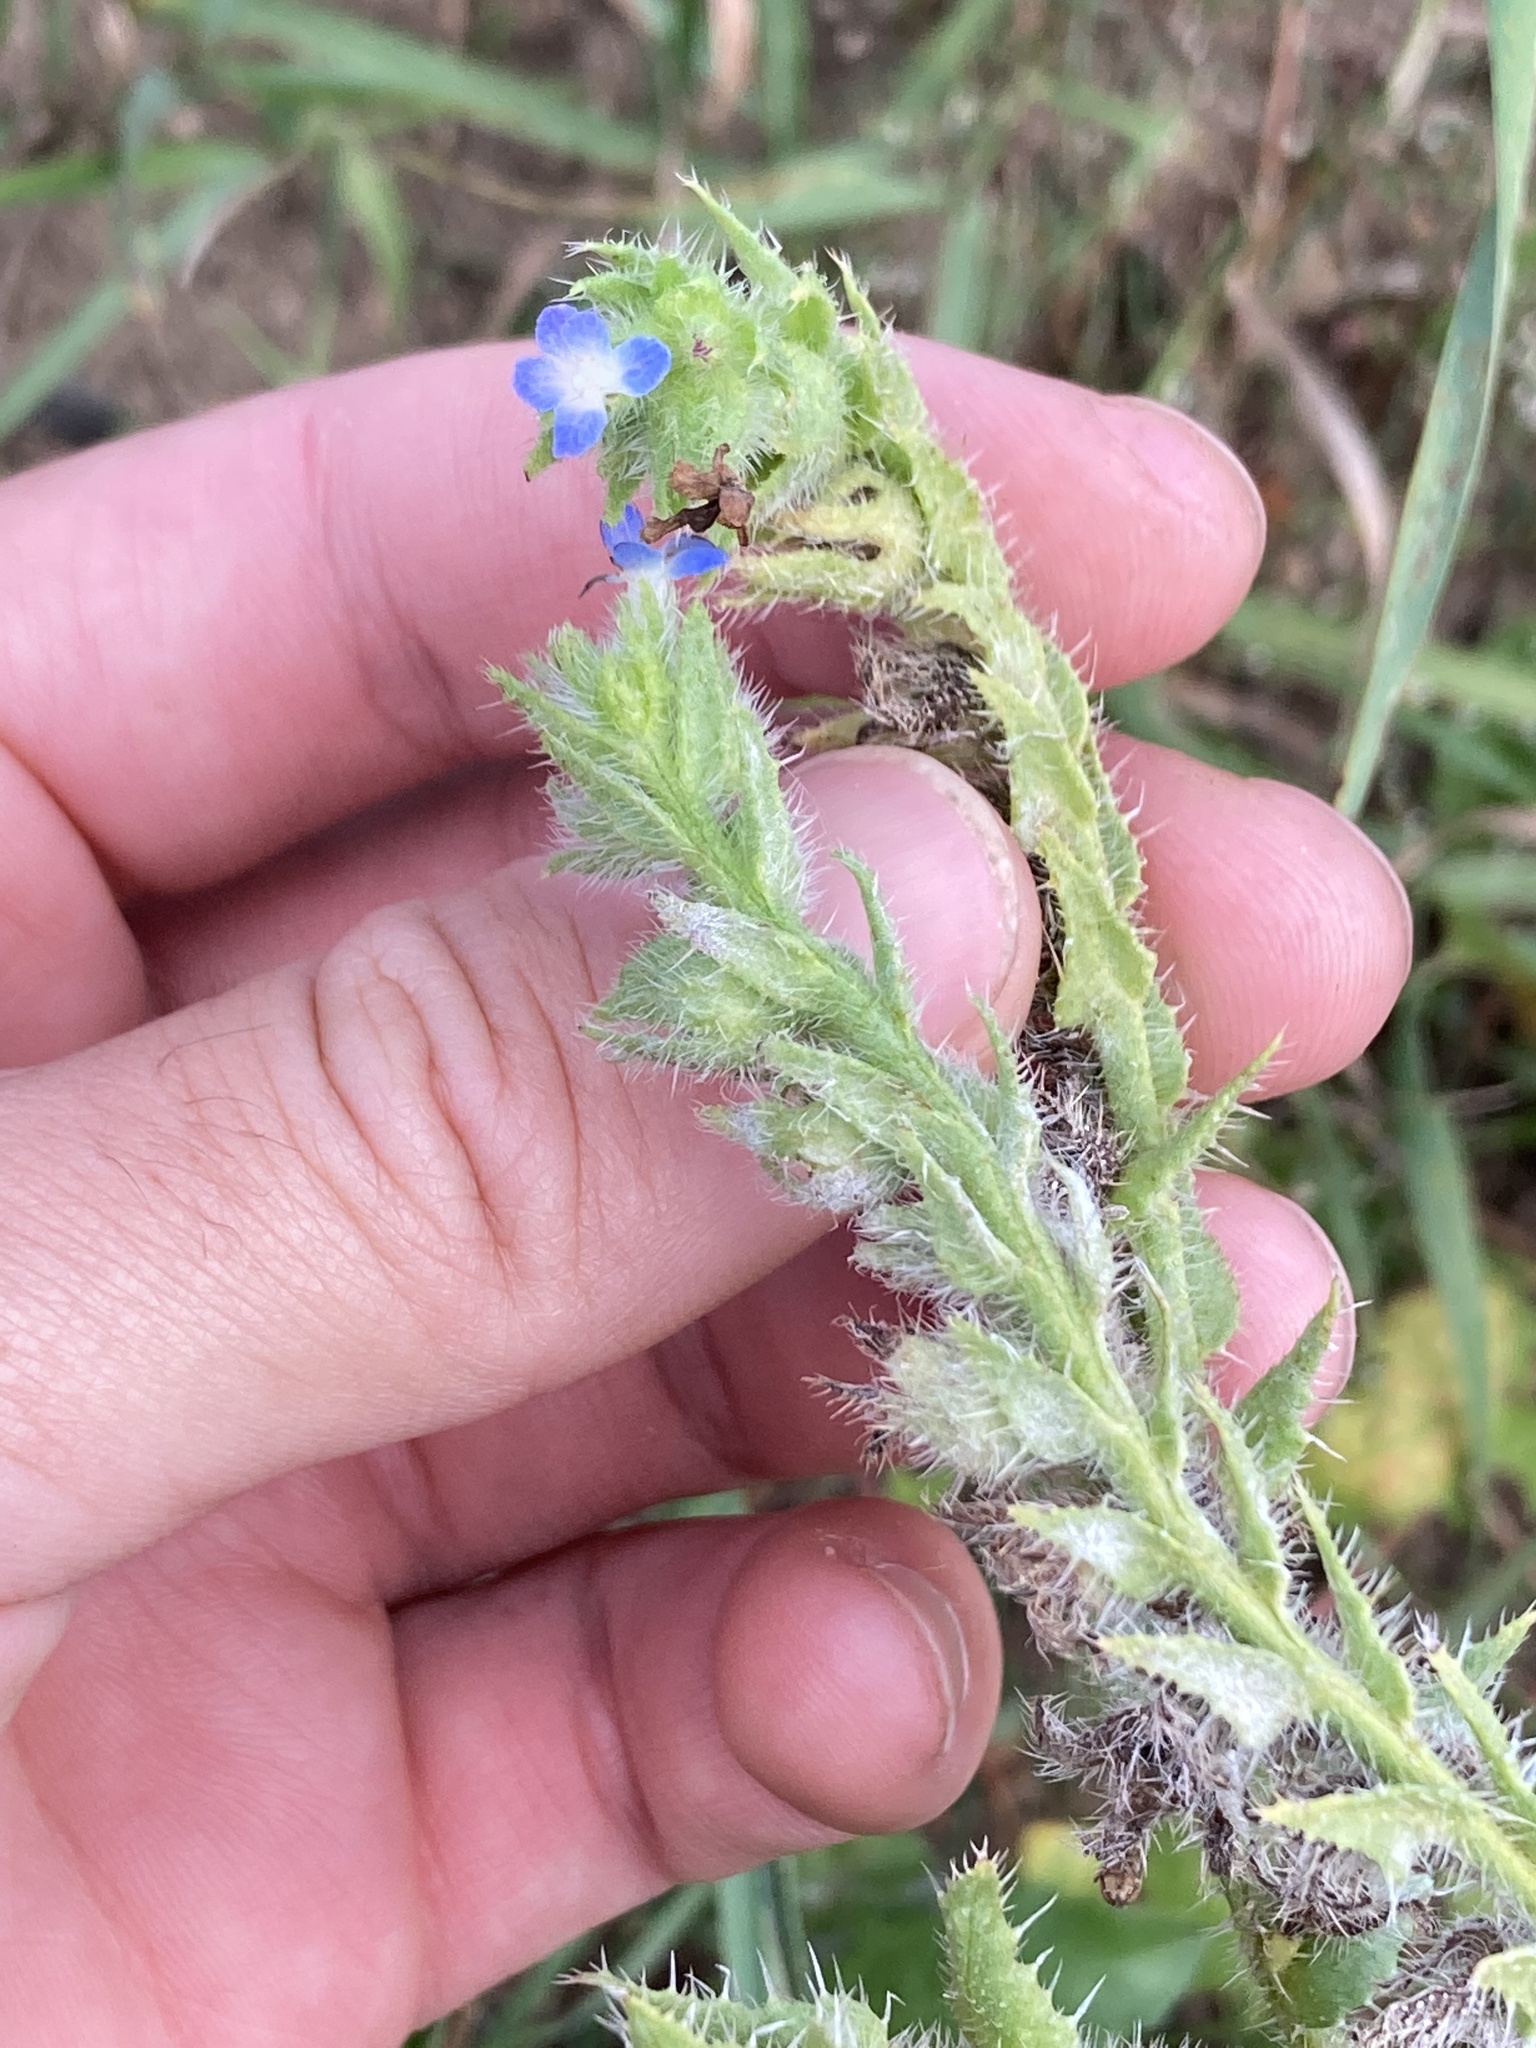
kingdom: Plantae
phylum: Tracheophyta
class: Magnoliopsida
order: Boraginales
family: Boraginaceae
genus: Lycopsis
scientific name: Lycopsis arvensis
